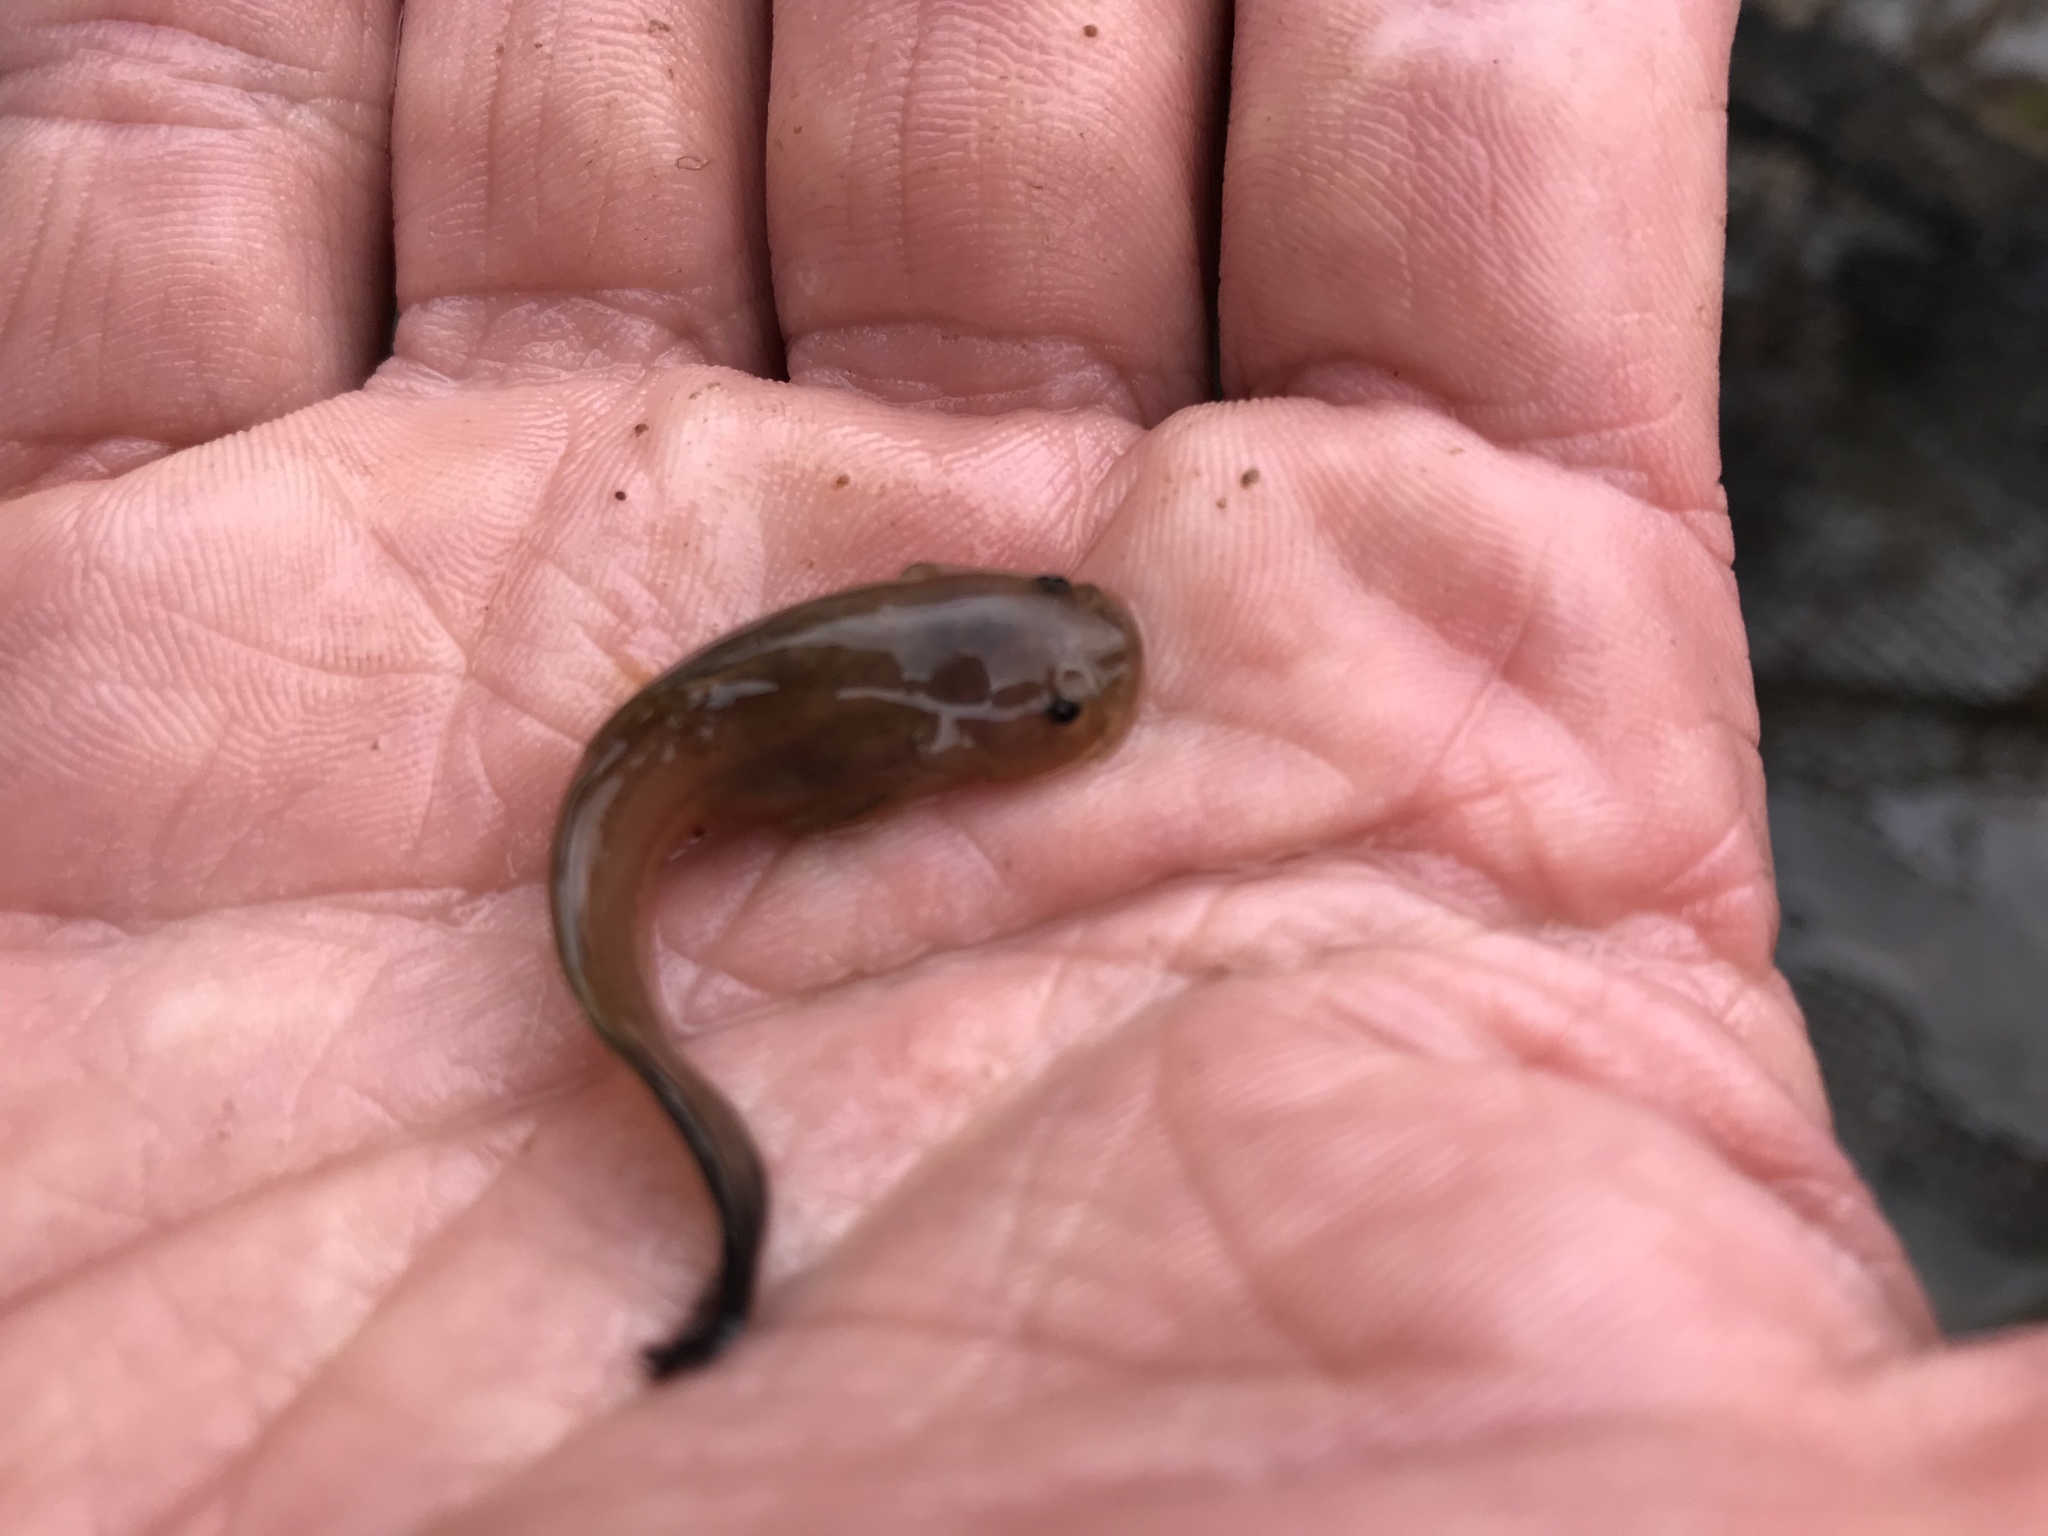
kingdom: Animalia
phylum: Chordata
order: Siluriformes
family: Ictaluridae
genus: Noturus
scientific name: Noturus gyrinus
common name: Tadpole madtom
